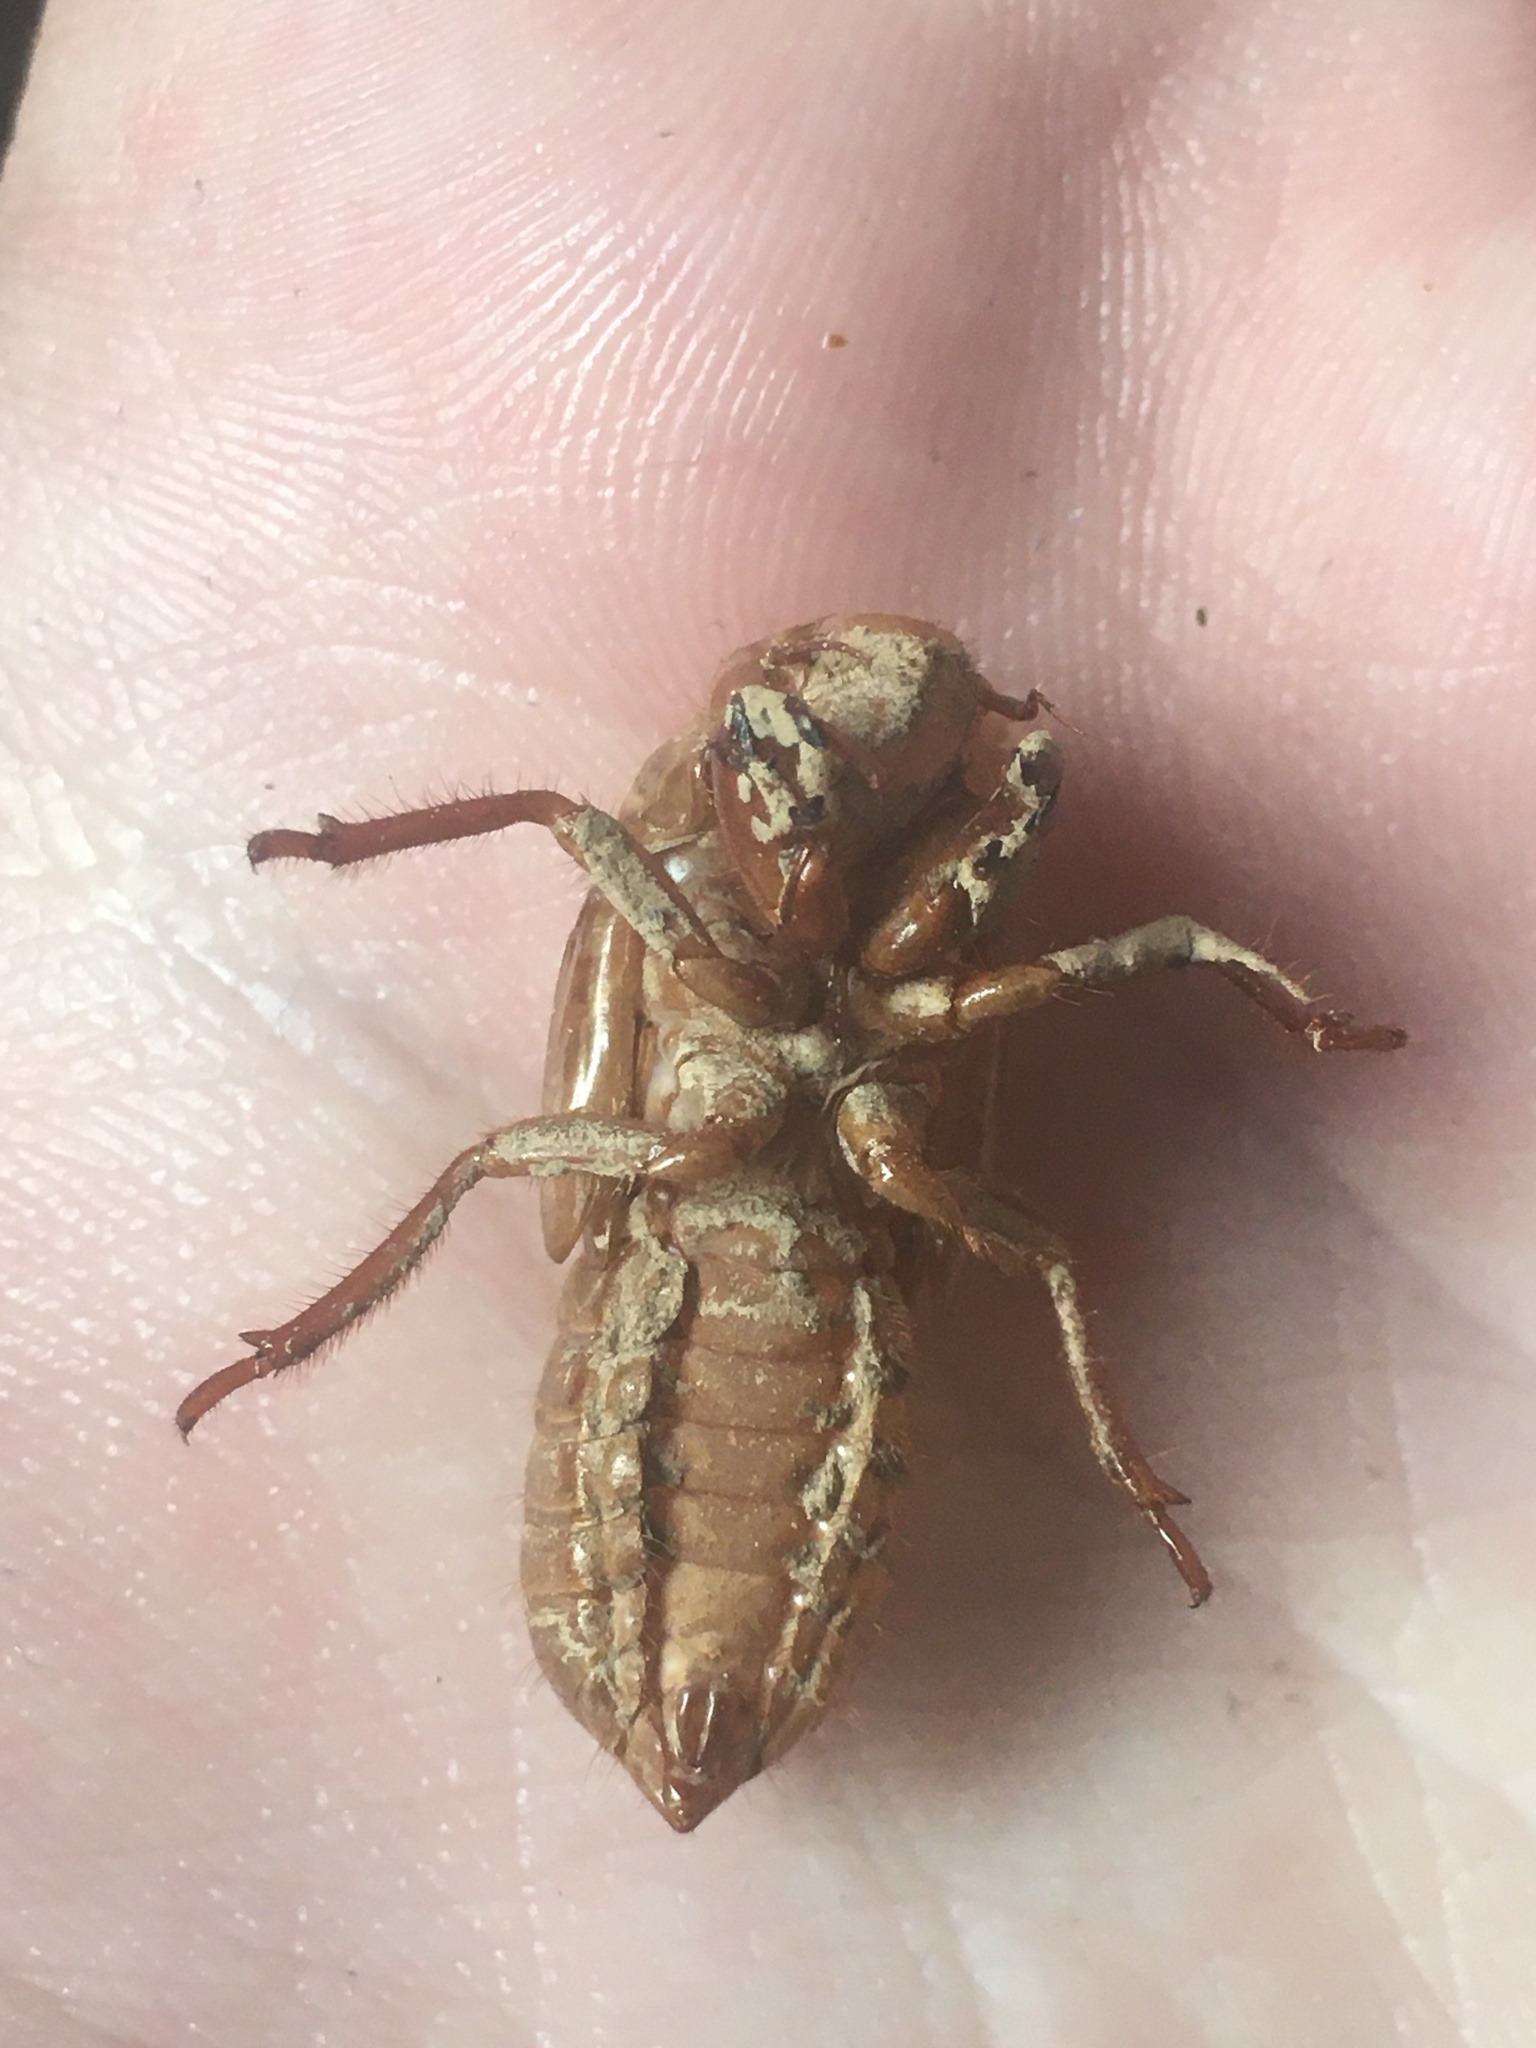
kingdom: Animalia
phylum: Arthropoda
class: Insecta
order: Hemiptera
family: Cicadidae
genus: Magicicada
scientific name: Magicicada
